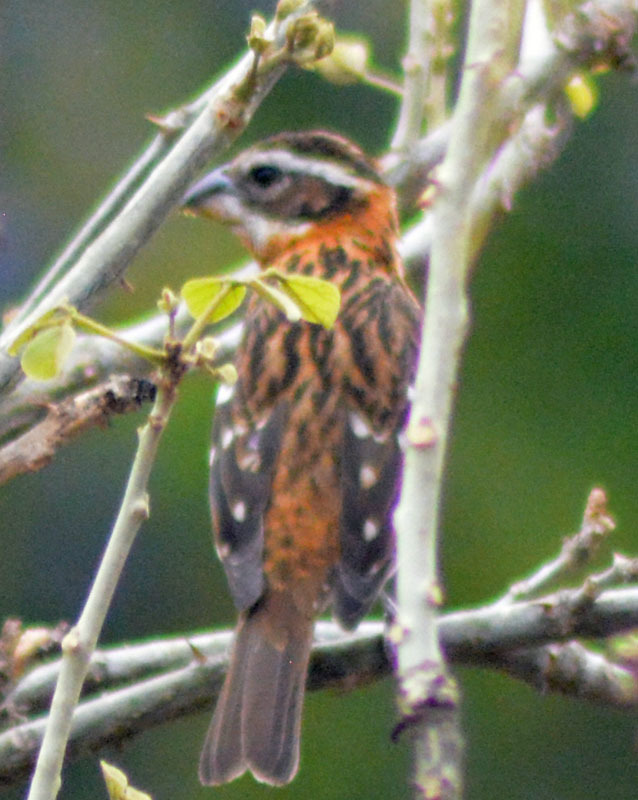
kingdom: Animalia
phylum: Chordata
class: Aves
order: Passeriformes
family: Cardinalidae
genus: Pheucticus
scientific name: Pheucticus melanocephalus
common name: Black-headed grosbeak
